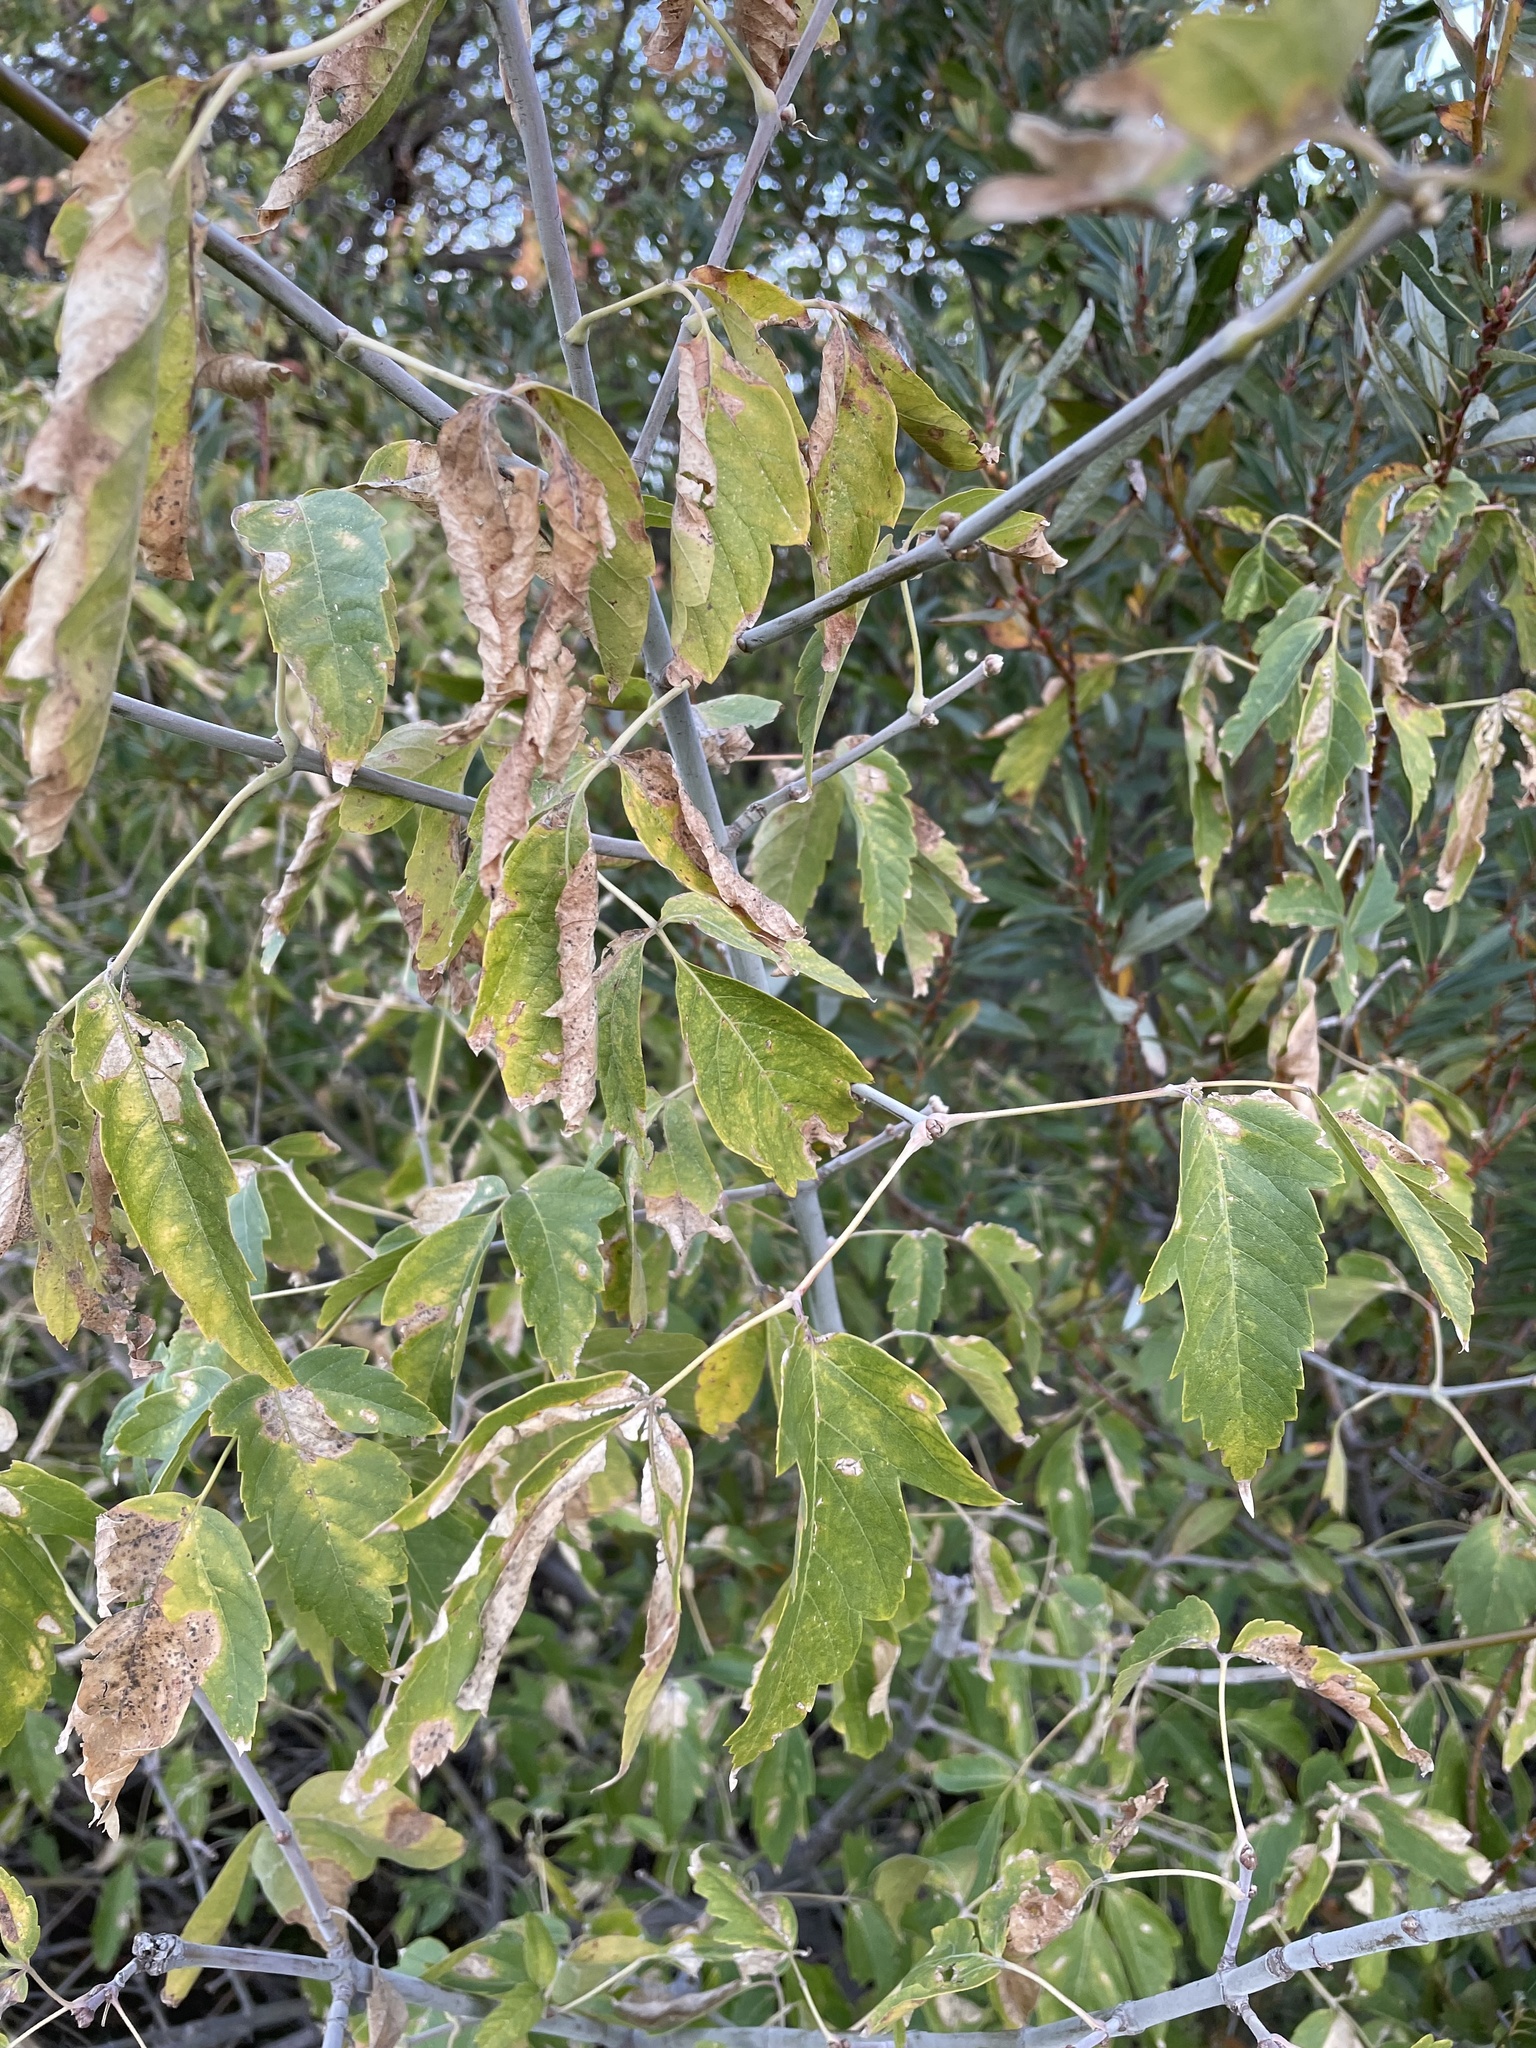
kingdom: Plantae
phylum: Tracheophyta
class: Magnoliopsida
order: Sapindales
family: Sapindaceae
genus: Acer
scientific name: Acer negundo
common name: Ashleaf maple
